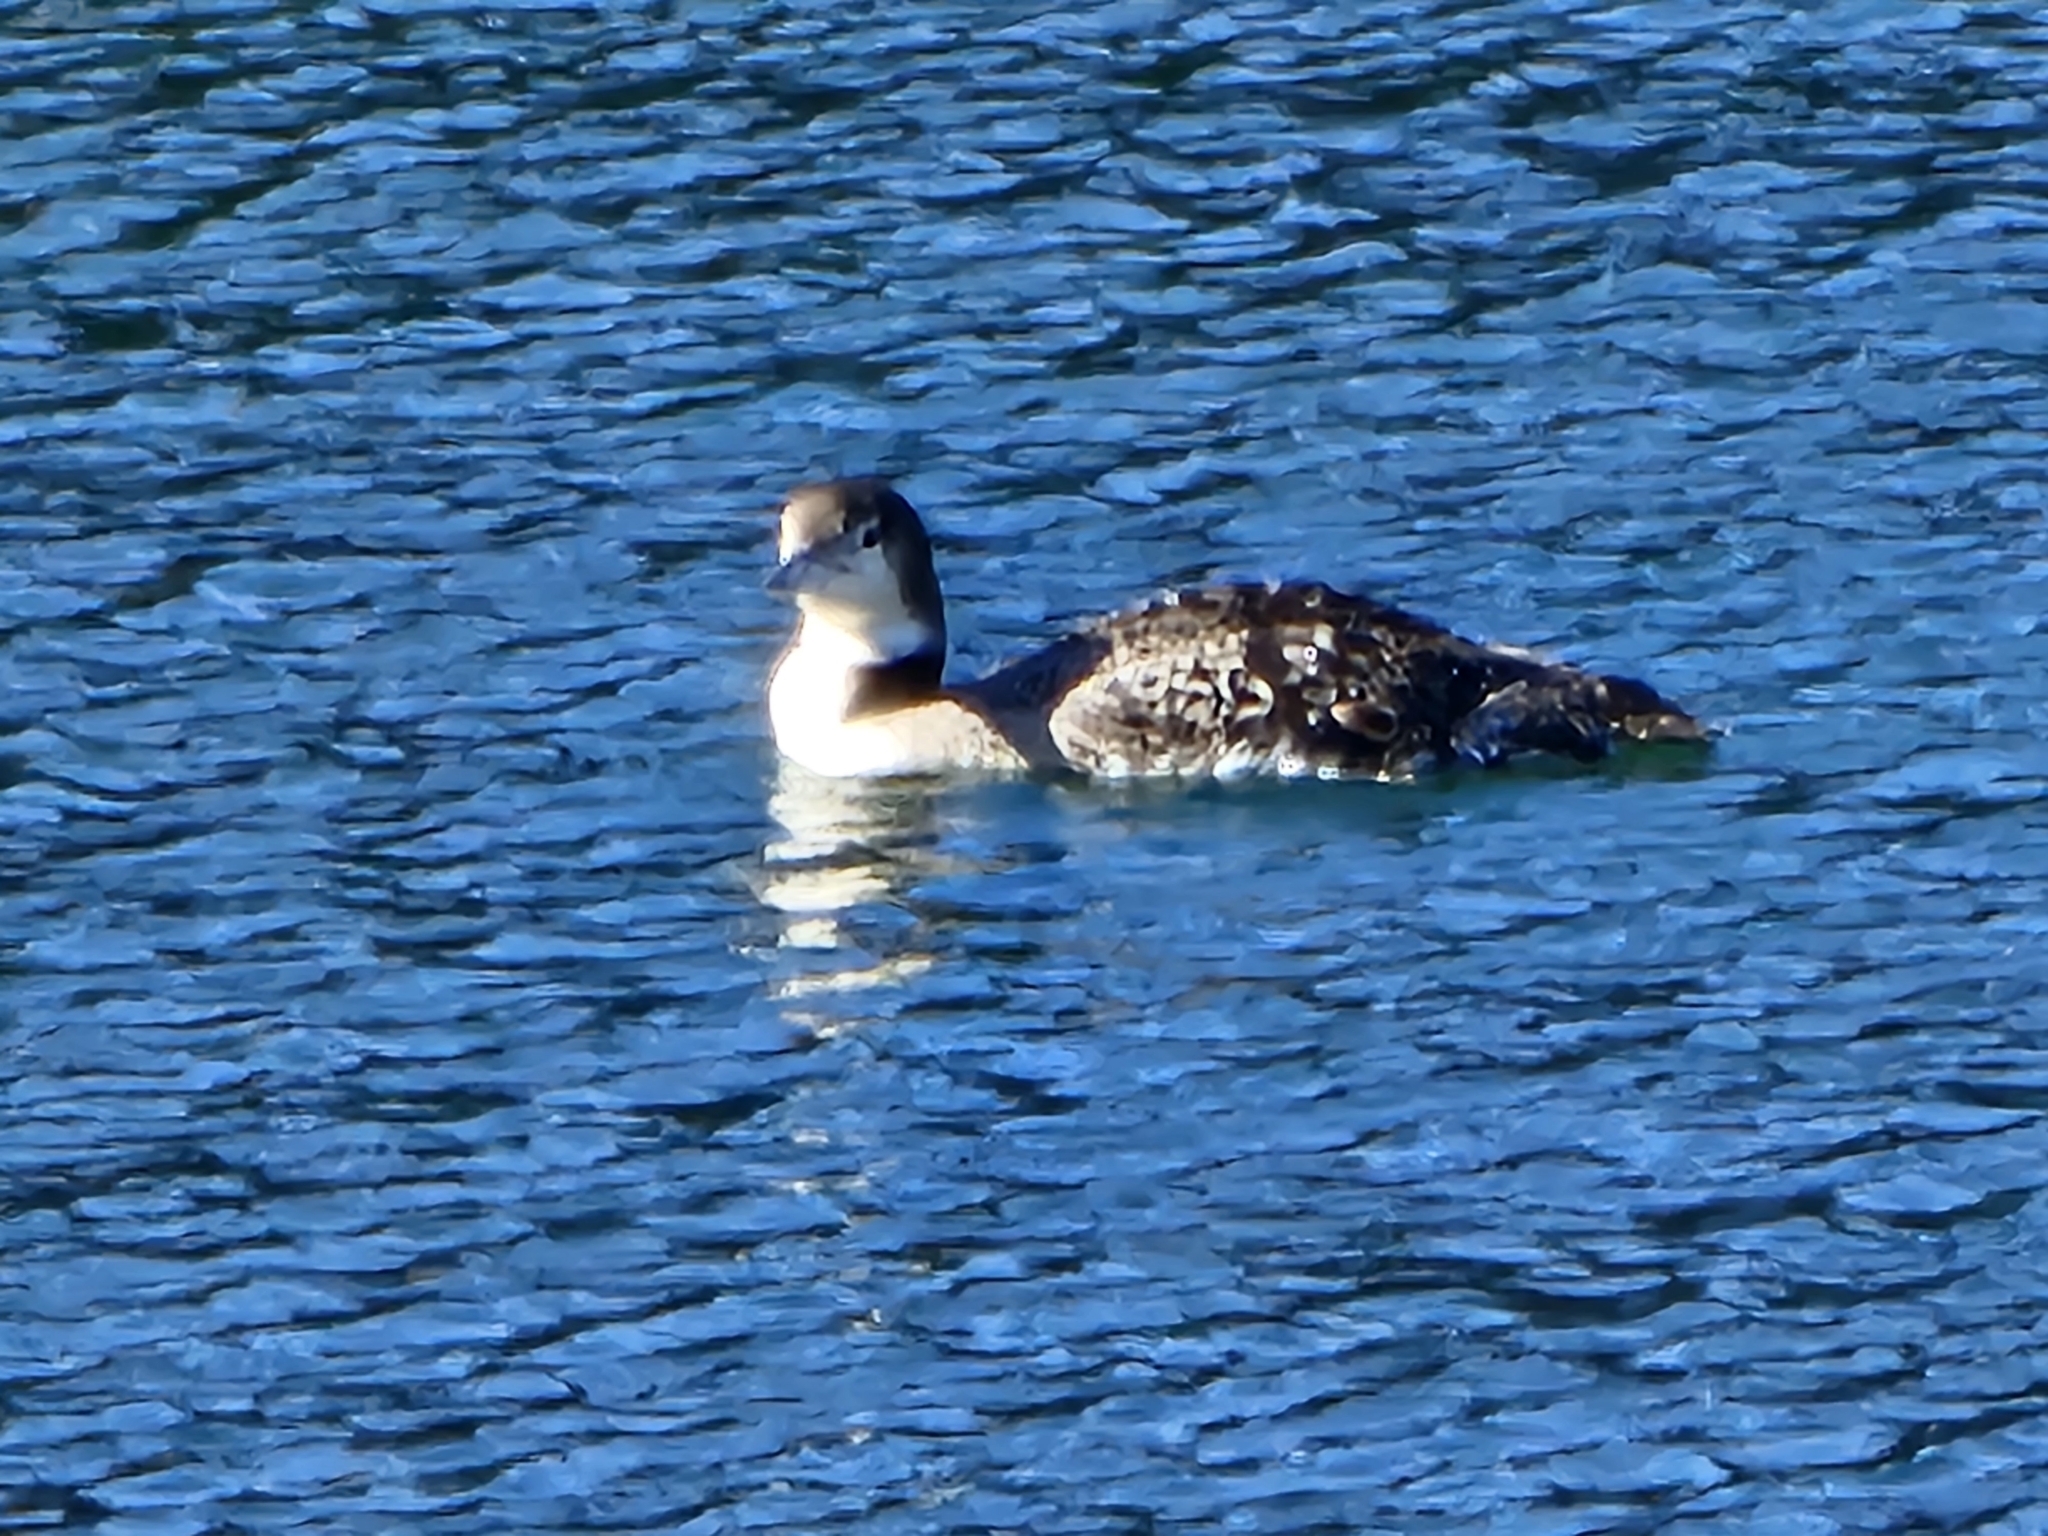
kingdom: Animalia
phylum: Chordata
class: Aves
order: Gaviiformes
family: Gaviidae
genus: Gavia
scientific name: Gavia immer
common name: Common loon
